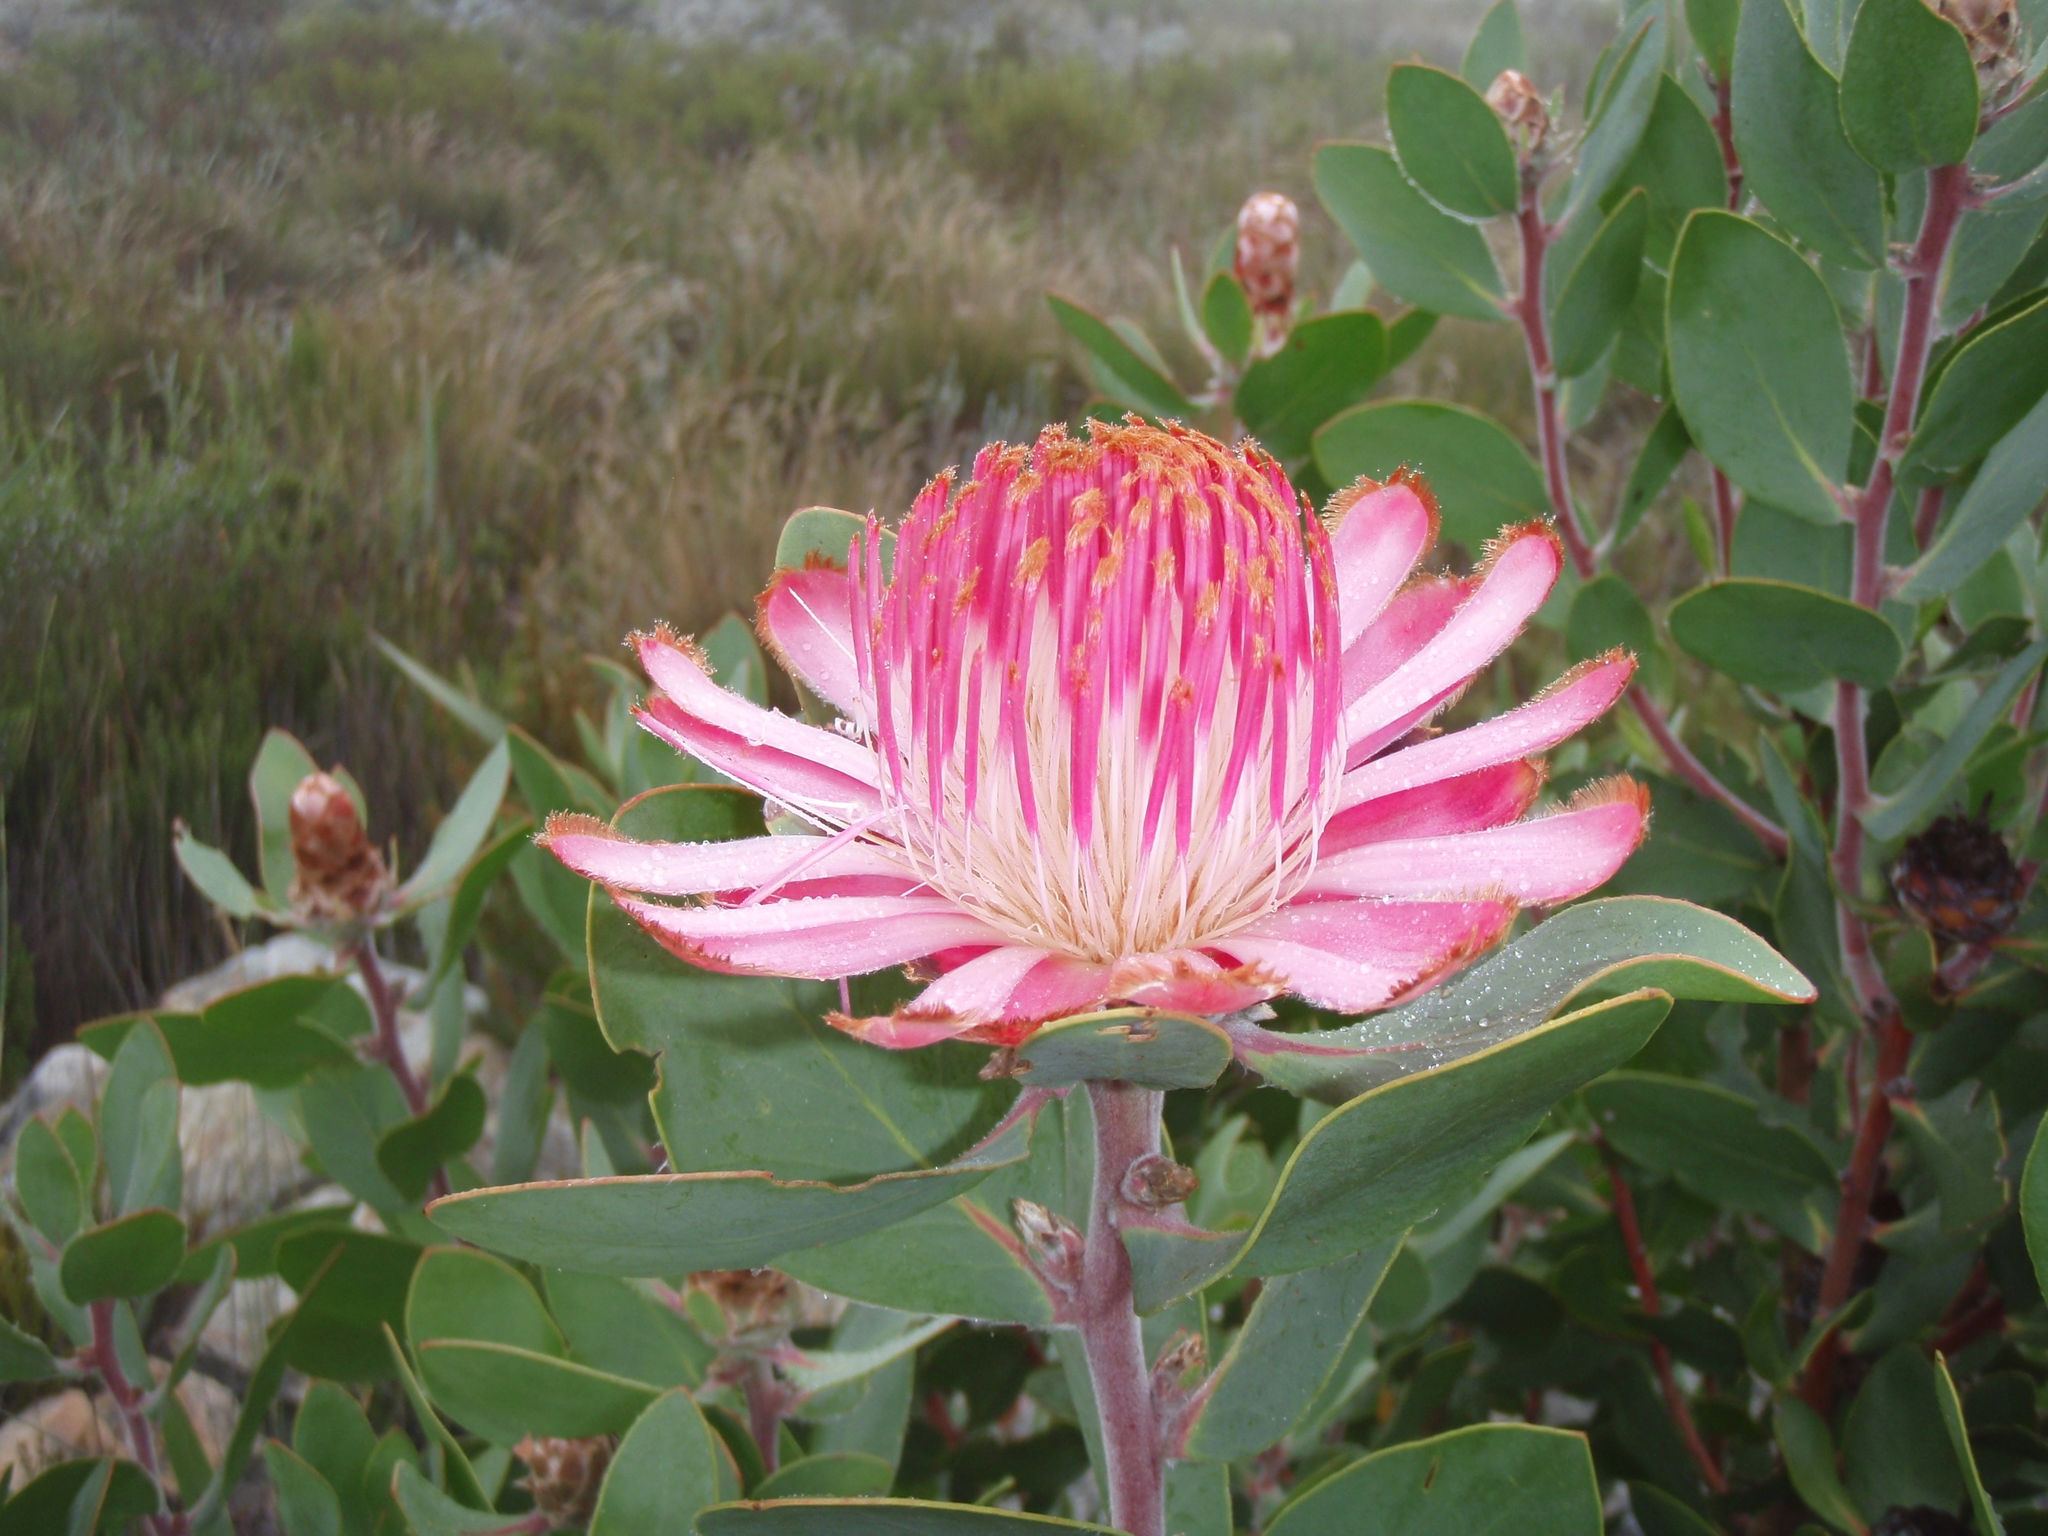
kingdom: Plantae
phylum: Tracheophyta
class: Magnoliopsida
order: Proteales
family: Proteaceae
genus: Protea
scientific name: Protea punctata
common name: Water sugarbush
